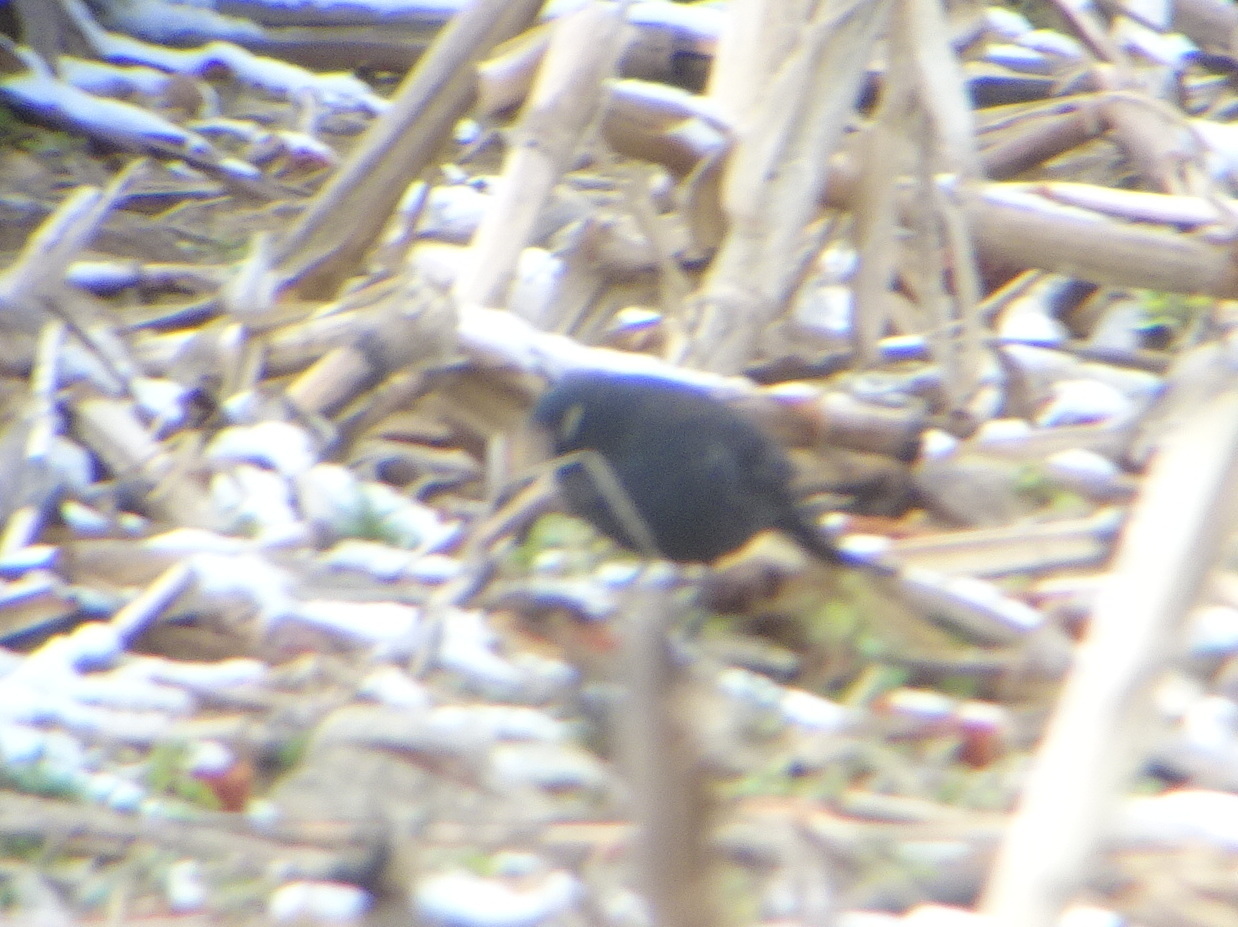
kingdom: Animalia
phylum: Chordata
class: Aves
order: Passeriformes
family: Icteridae
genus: Euphagus
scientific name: Euphagus carolinus
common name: Rusty blackbird
